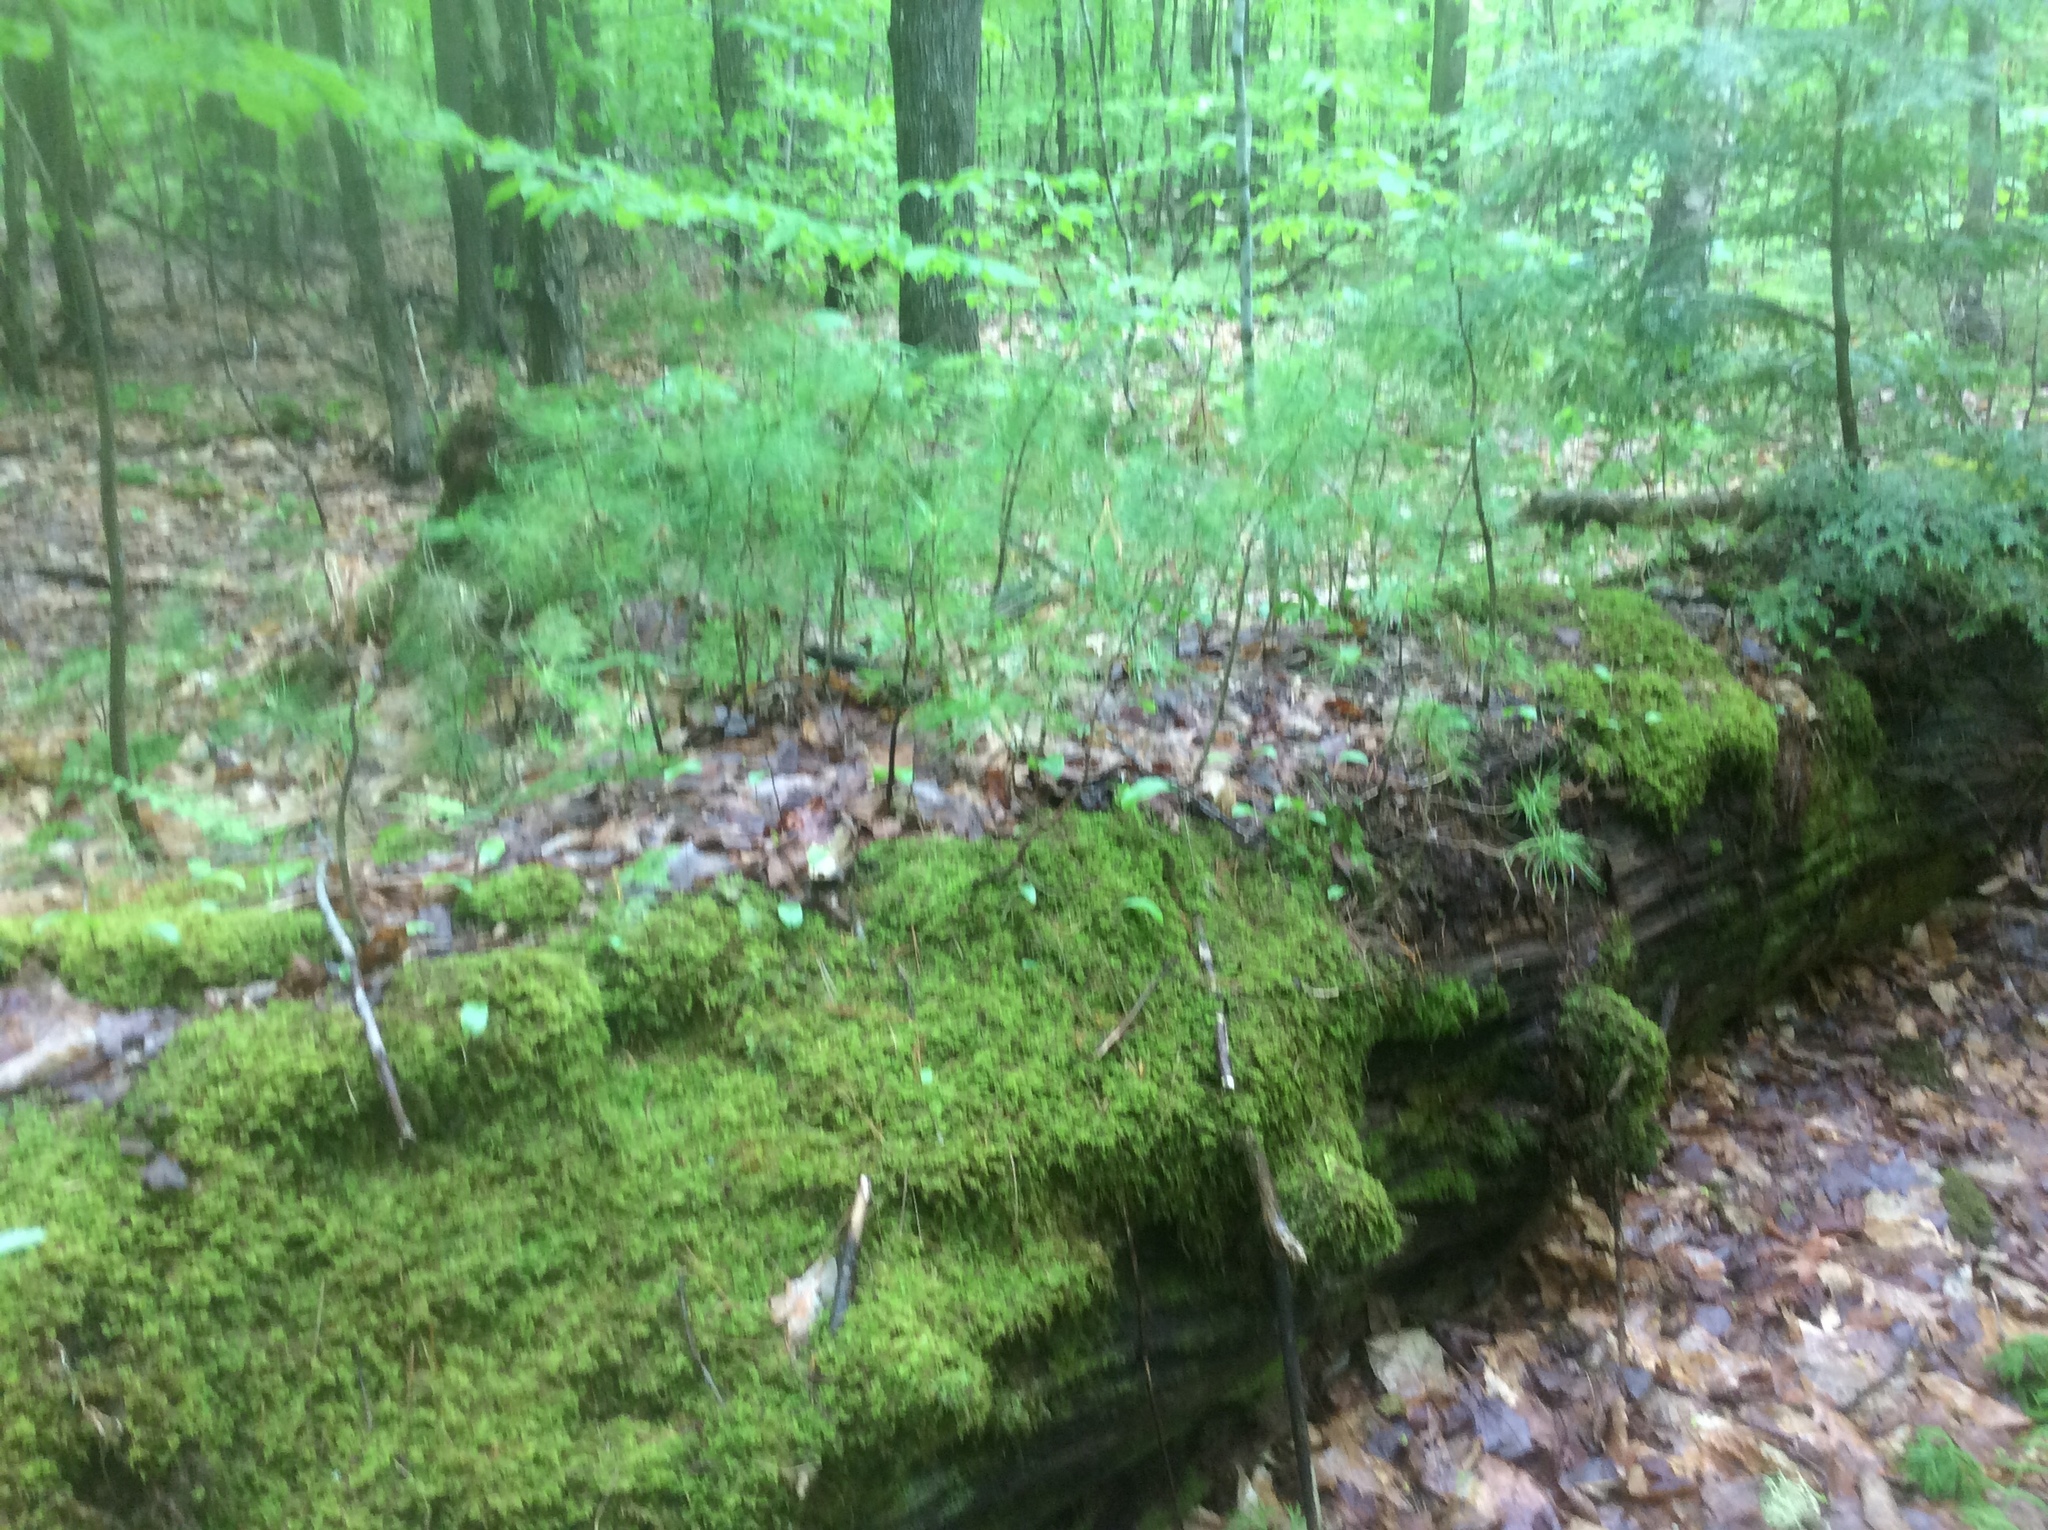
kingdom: Plantae
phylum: Tracheophyta
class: Pinopsida
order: Pinales
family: Pinaceae
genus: Pinus
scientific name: Pinus strobus
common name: Weymouth pine
